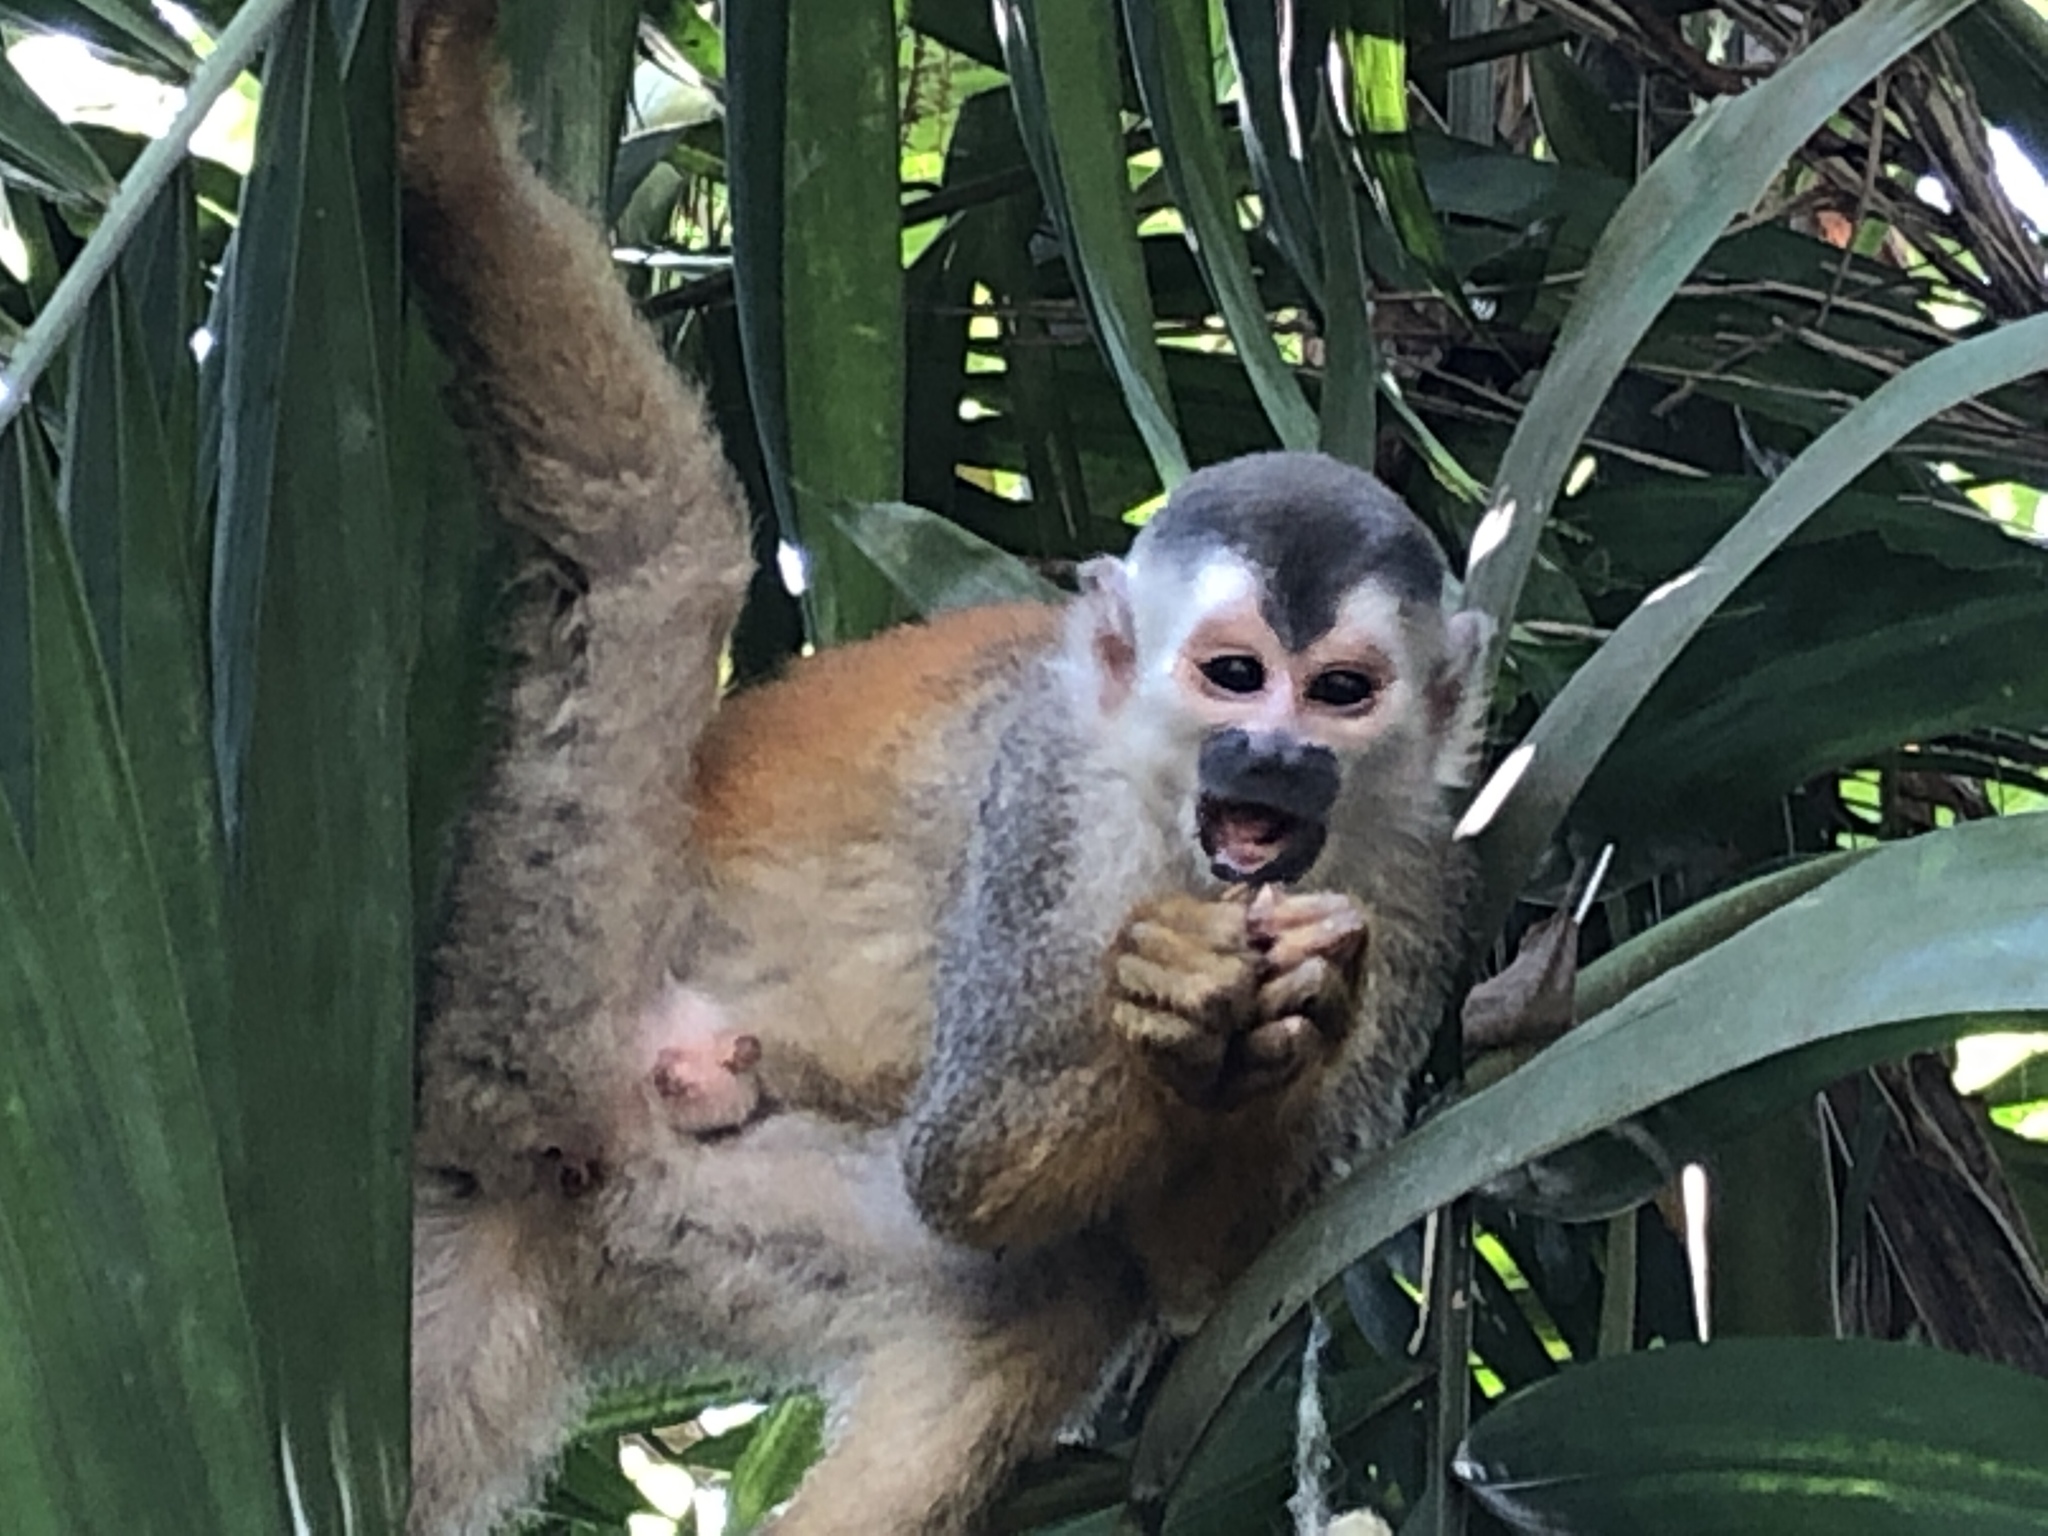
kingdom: Animalia
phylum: Chordata
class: Mammalia
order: Primates
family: Cebidae
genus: Saimiri
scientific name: Saimiri oerstedii
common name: Central american squirrel monkey
